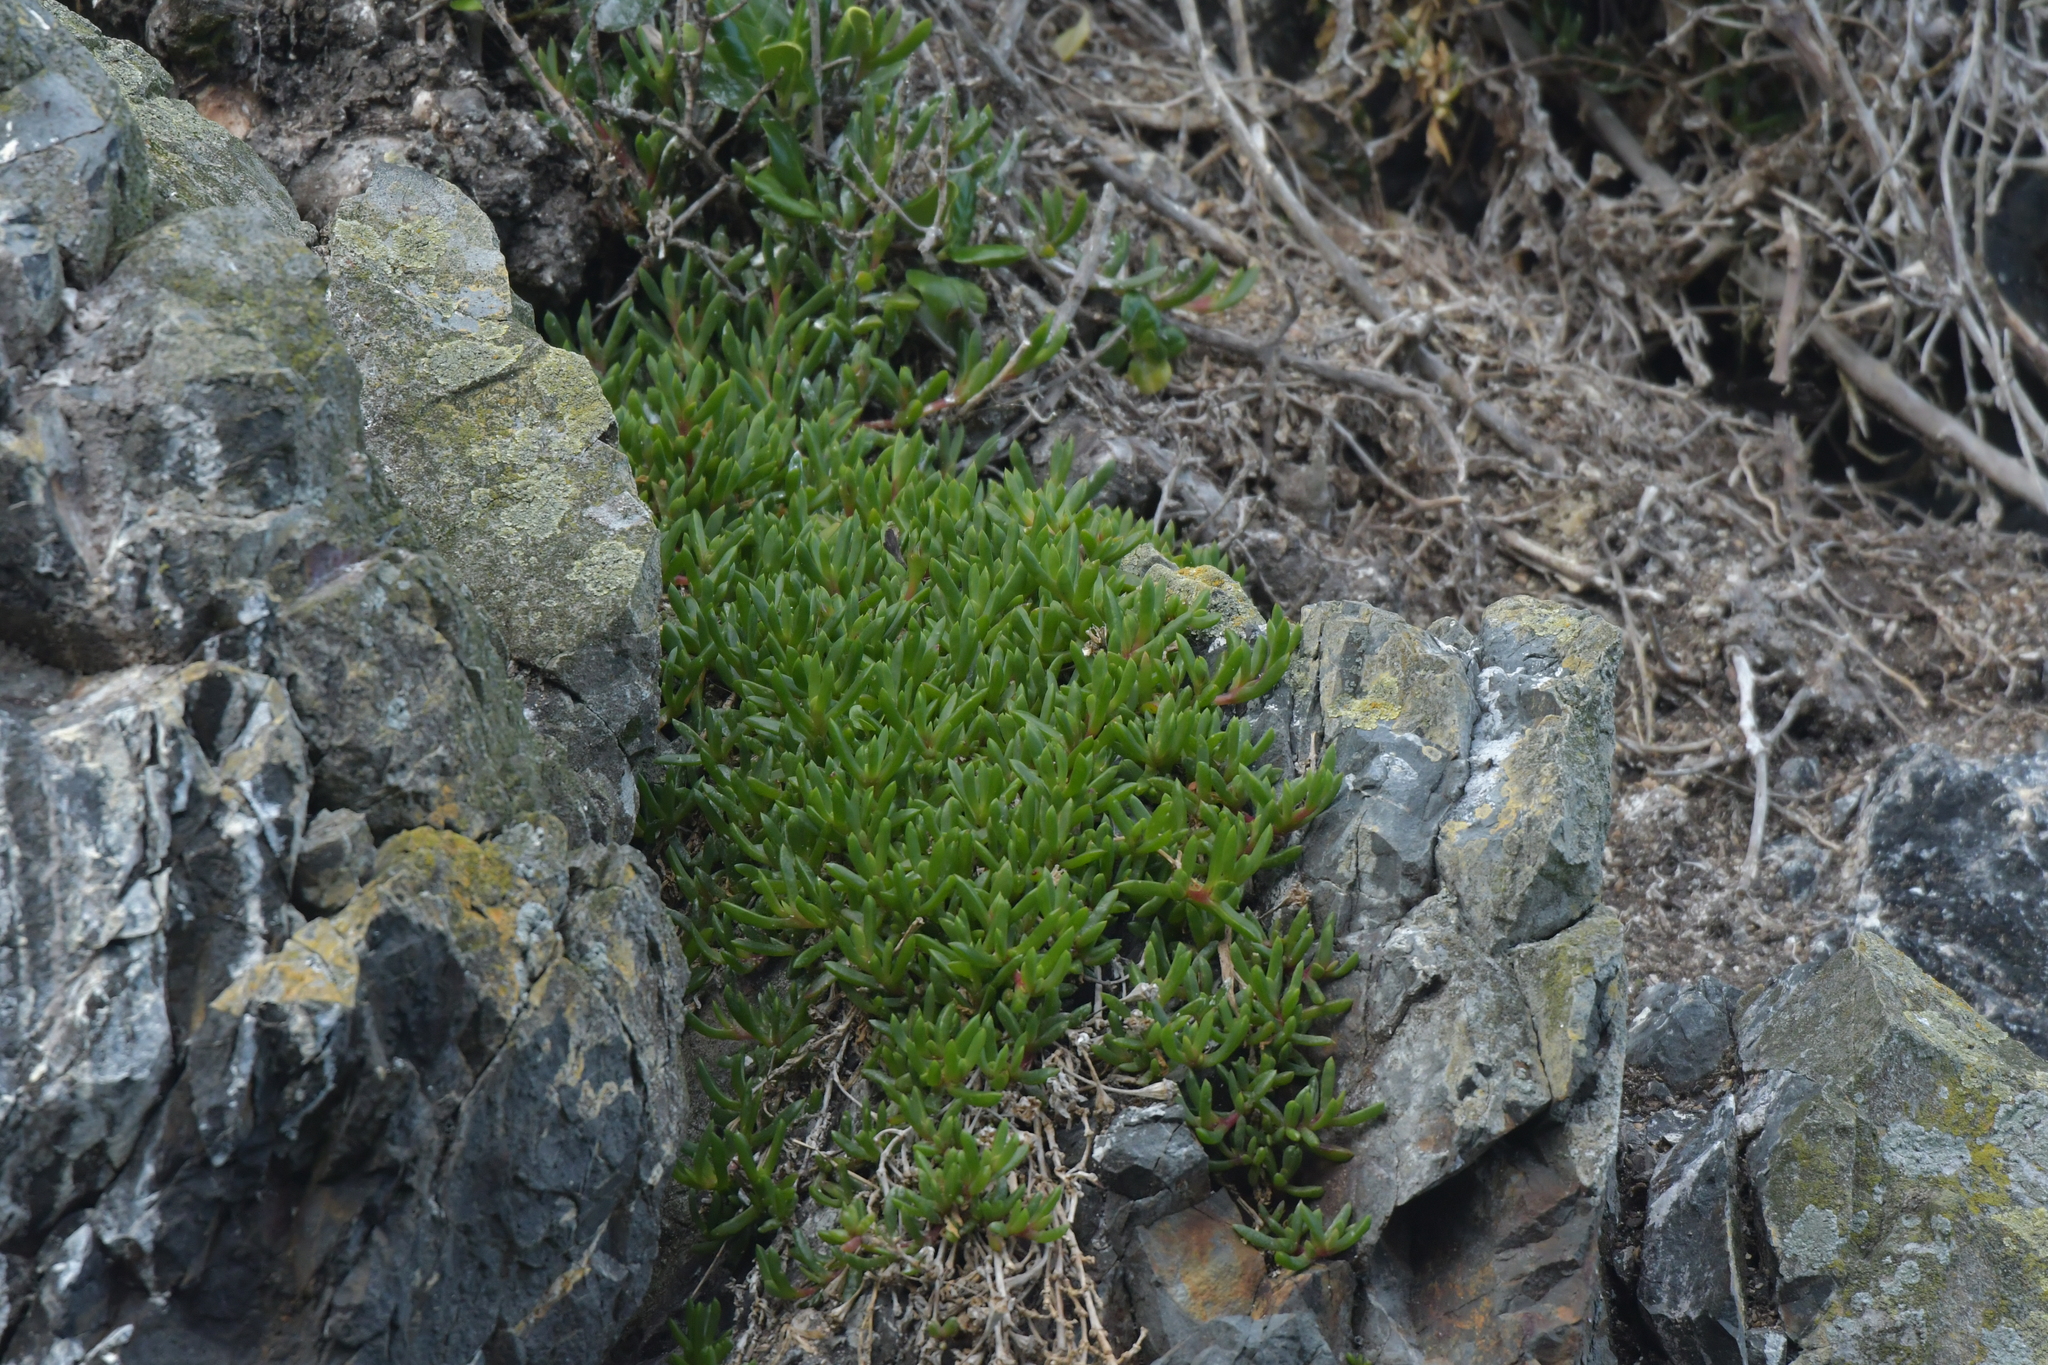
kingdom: Plantae
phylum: Tracheophyta
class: Magnoliopsida
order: Caryophyllales
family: Aizoaceae
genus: Disphyma
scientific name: Disphyma australe
